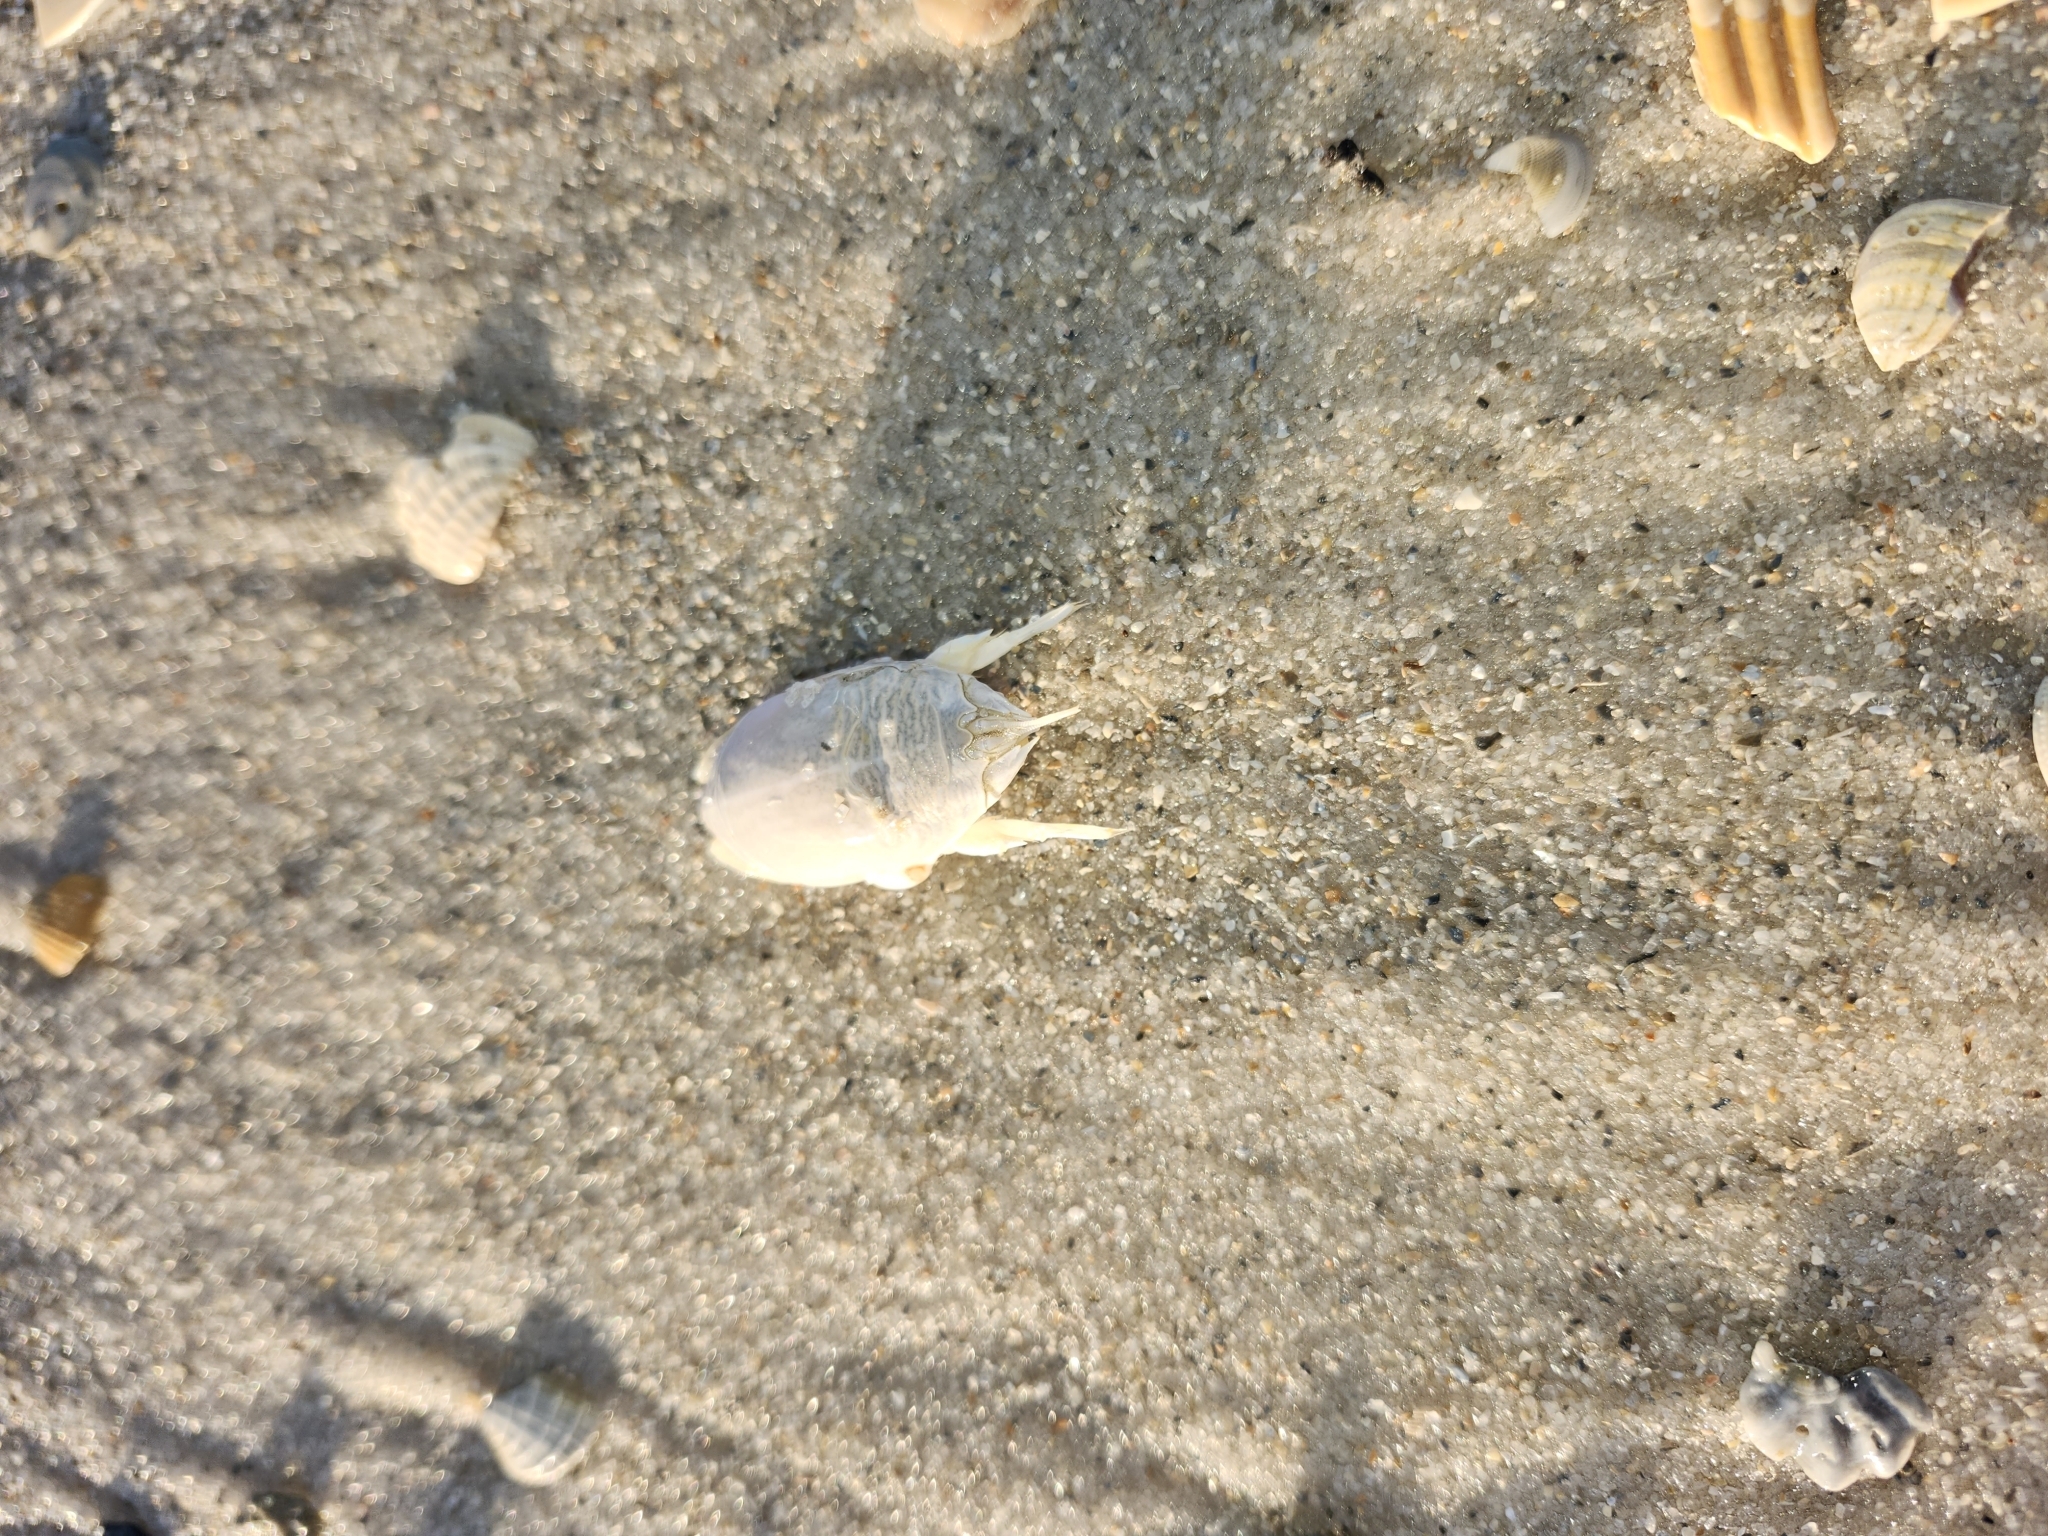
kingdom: Animalia
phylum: Arthropoda
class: Malacostraca
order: Decapoda
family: Hippidae
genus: Emerita
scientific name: Emerita talpoida
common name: Atlantic sand crab
